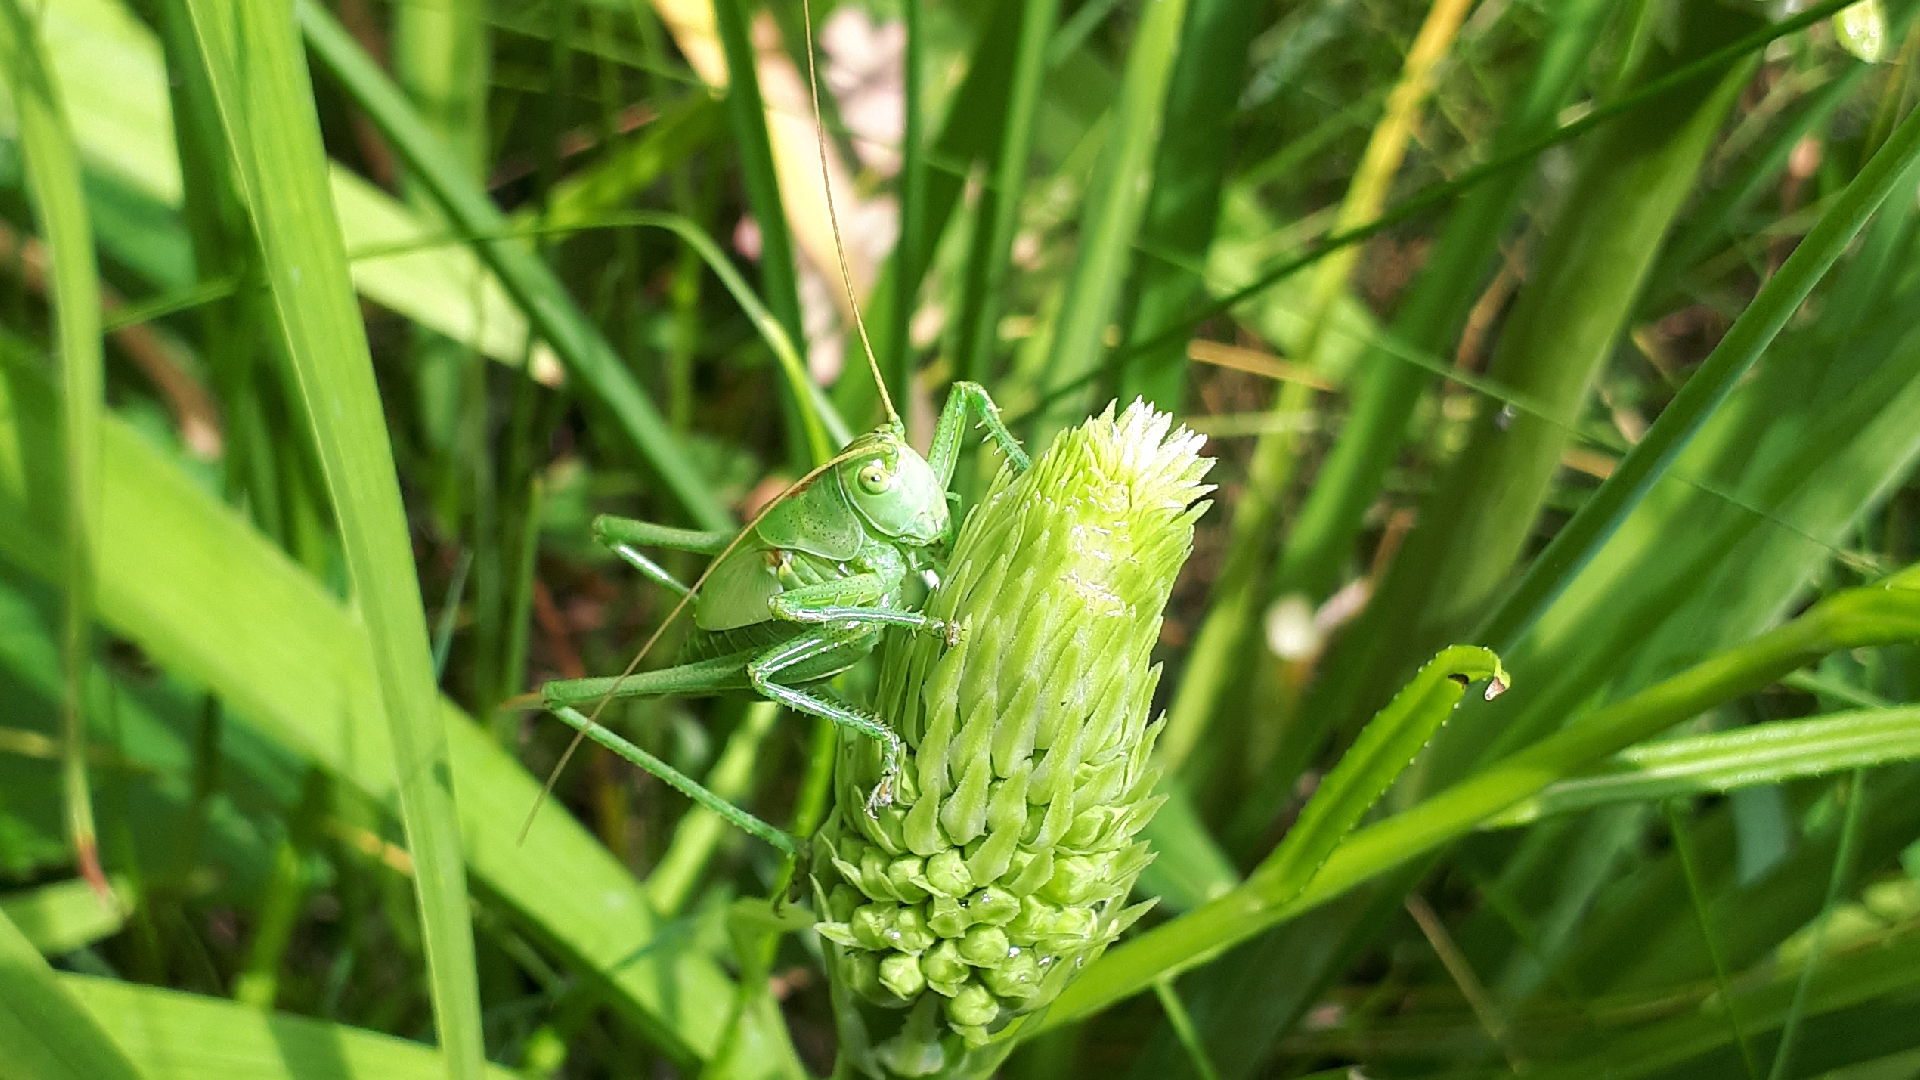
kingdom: Animalia
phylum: Arthropoda
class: Insecta
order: Orthoptera
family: Tettigoniidae
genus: Tettigonia
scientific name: Tettigonia viridissima
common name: Great green bush-cricket
